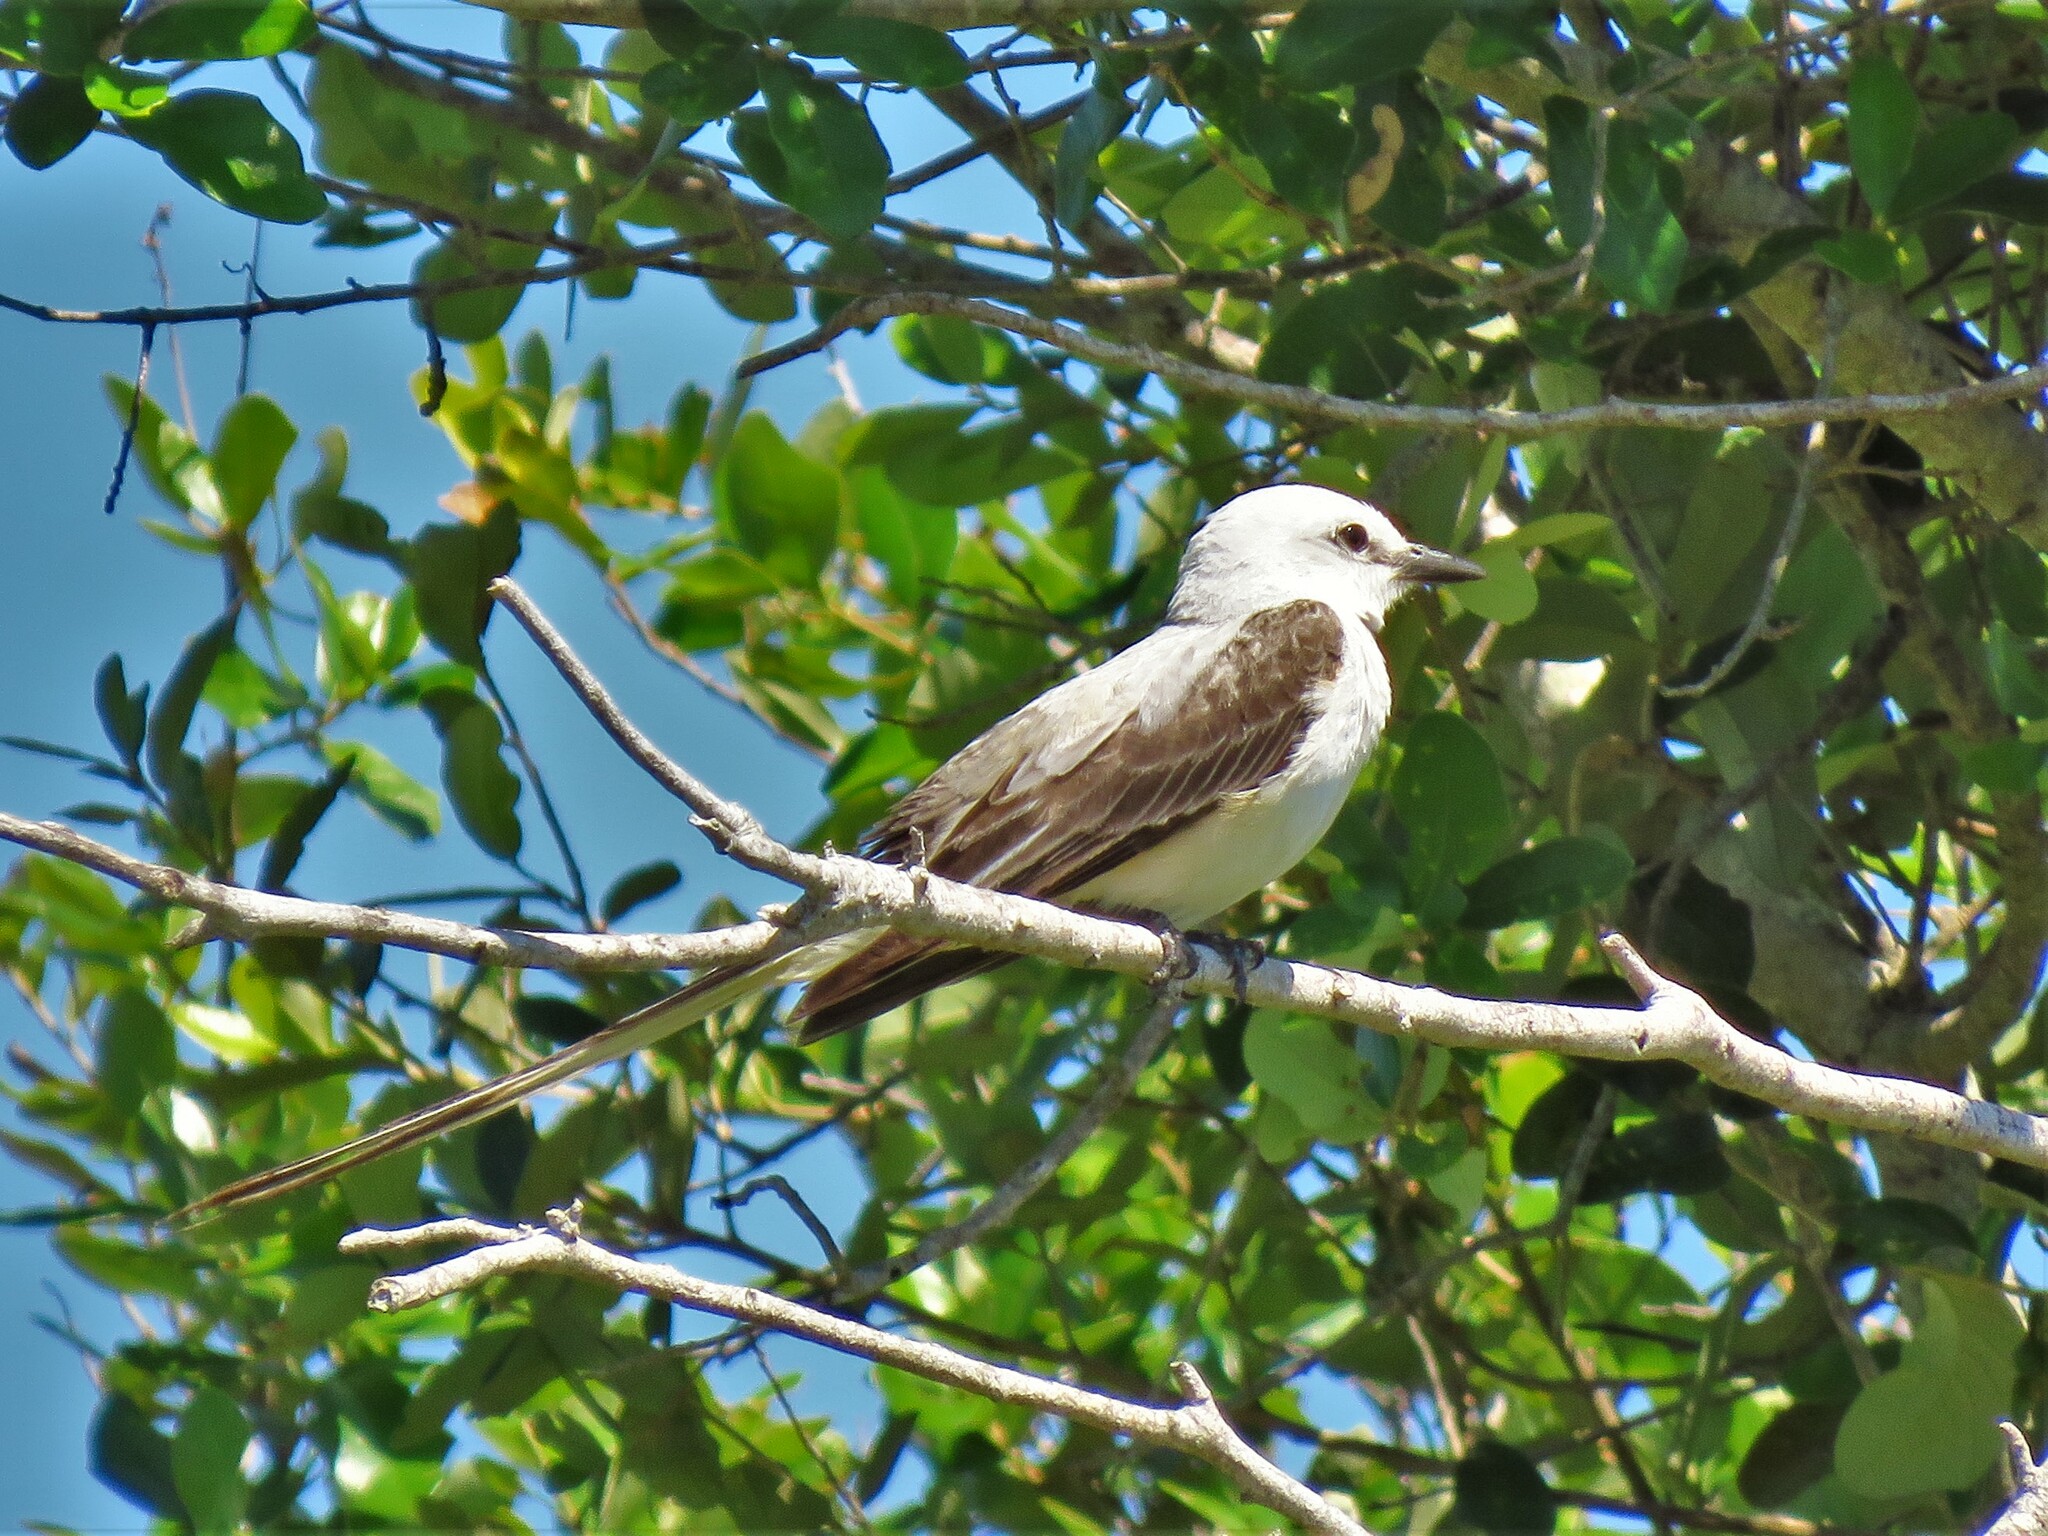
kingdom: Animalia
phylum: Chordata
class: Aves
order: Passeriformes
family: Tyrannidae
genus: Tyrannus
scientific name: Tyrannus forficatus
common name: Scissor-tailed flycatcher
